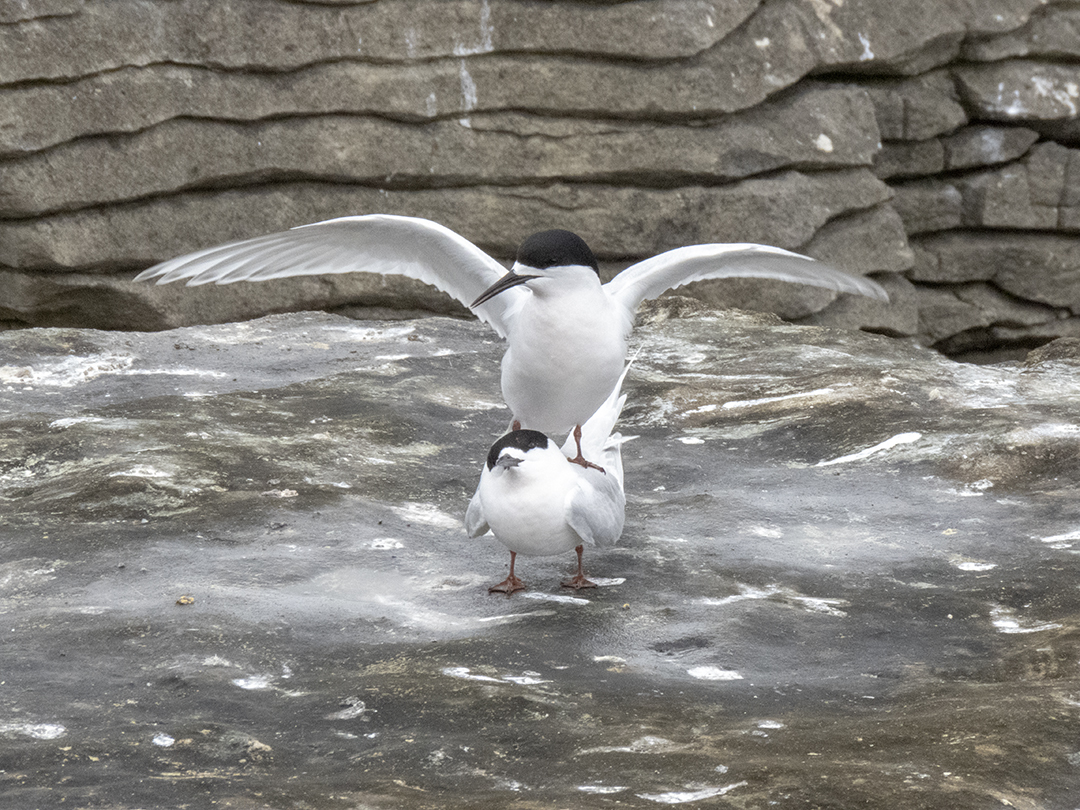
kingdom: Animalia
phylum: Chordata
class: Aves
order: Charadriiformes
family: Laridae
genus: Sterna
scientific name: Sterna striata
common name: White-fronted tern
